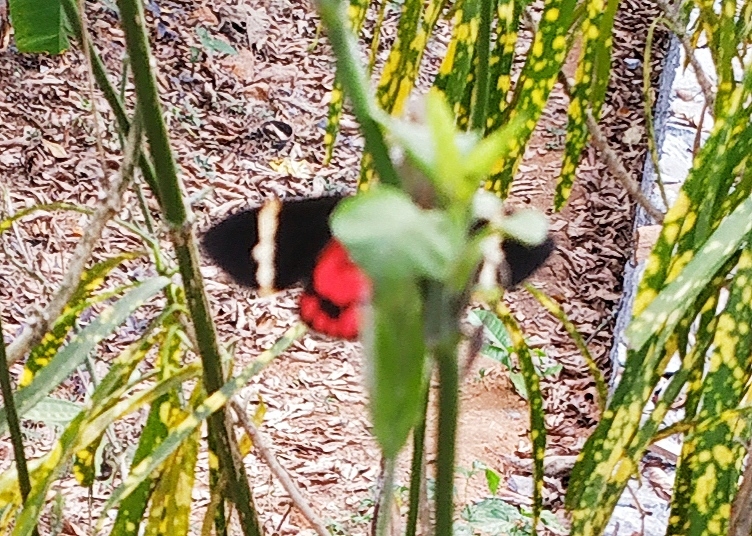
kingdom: Animalia
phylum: Arthropoda
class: Insecta
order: Lepidoptera
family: Erebidae
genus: Curoba
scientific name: Curoba sangarida
